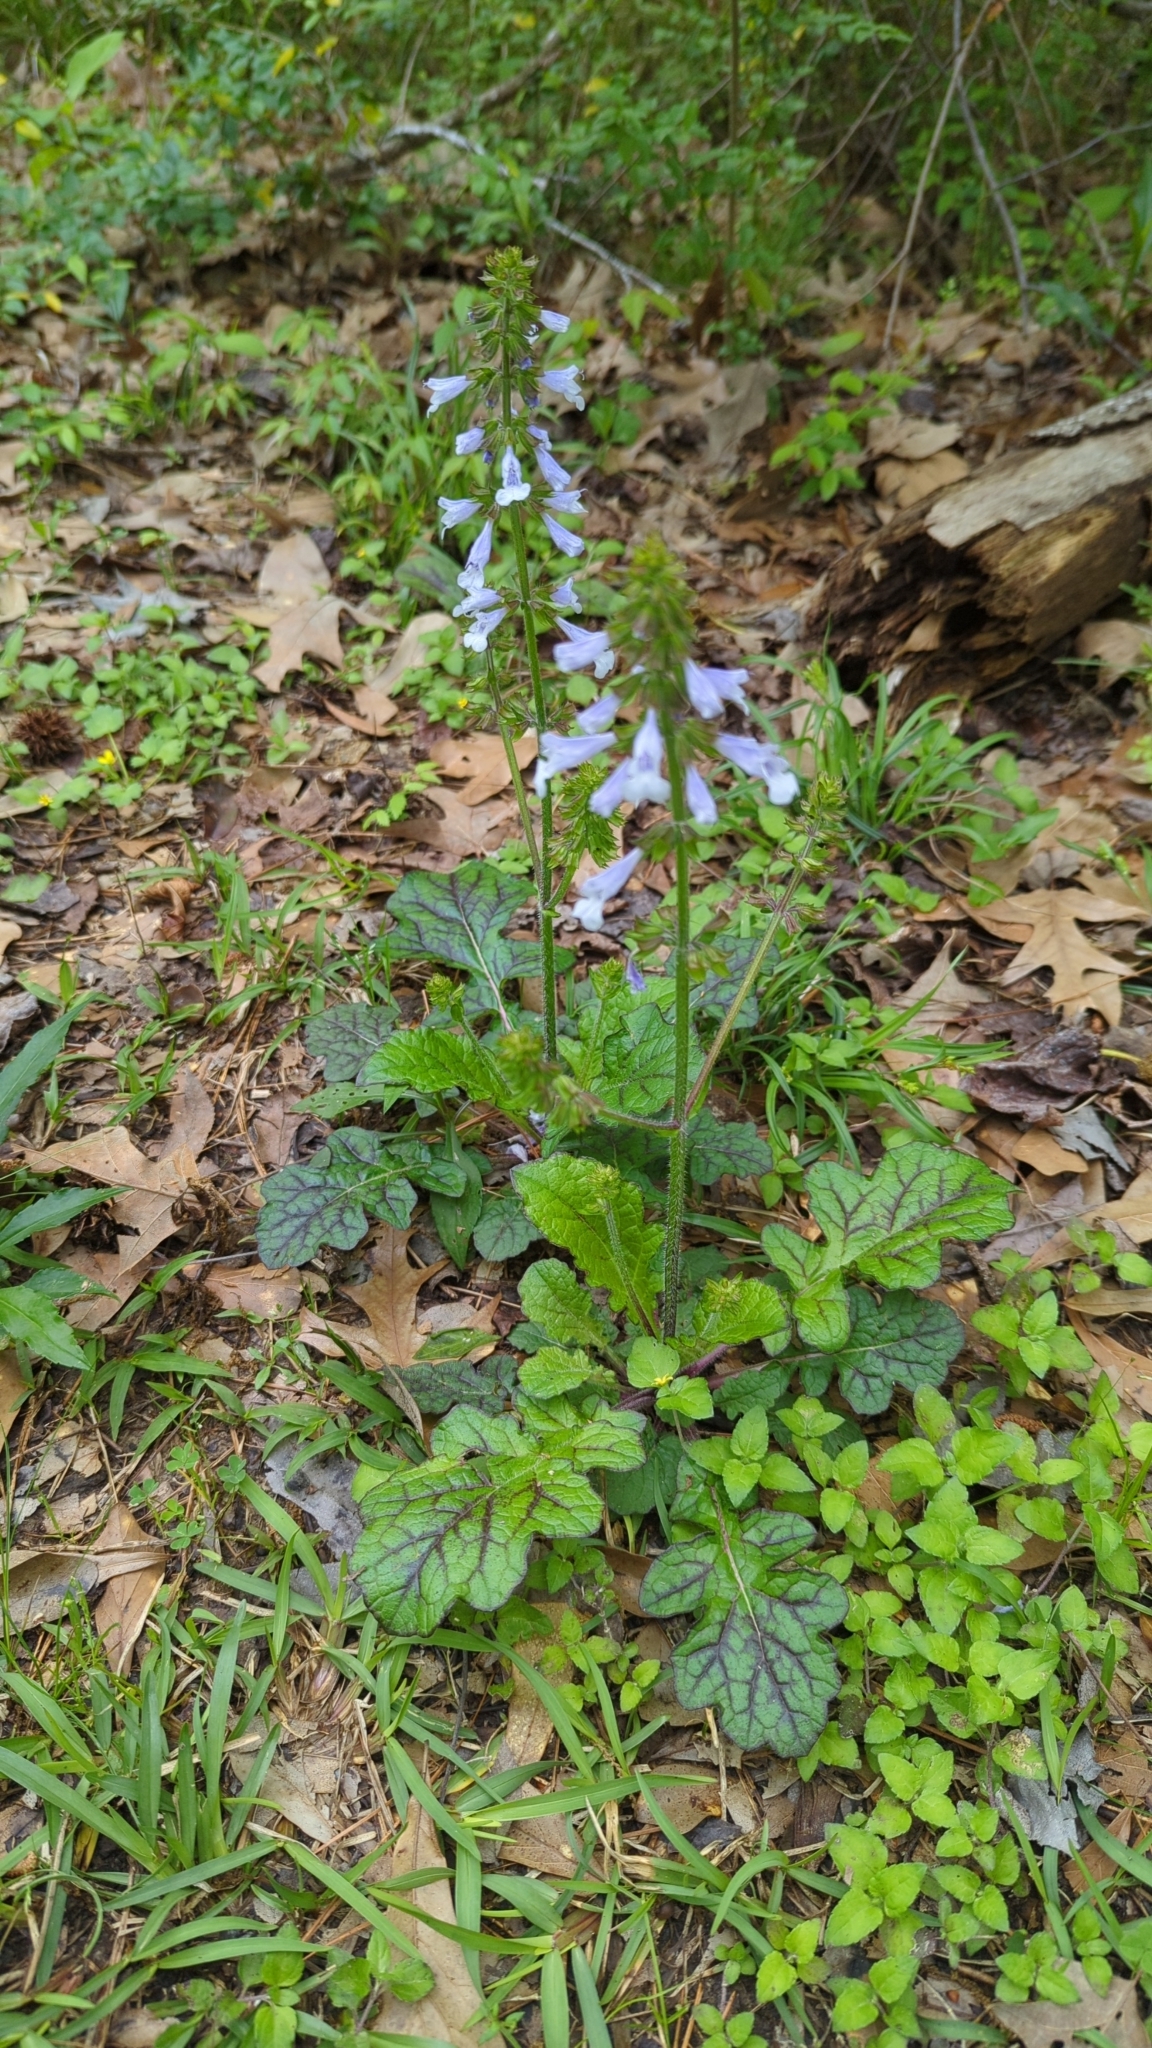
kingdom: Plantae
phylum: Tracheophyta
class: Magnoliopsida
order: Lamiales
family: Lamiaceae
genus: Salvia
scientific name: Salvia lyrata
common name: Cancerweed
